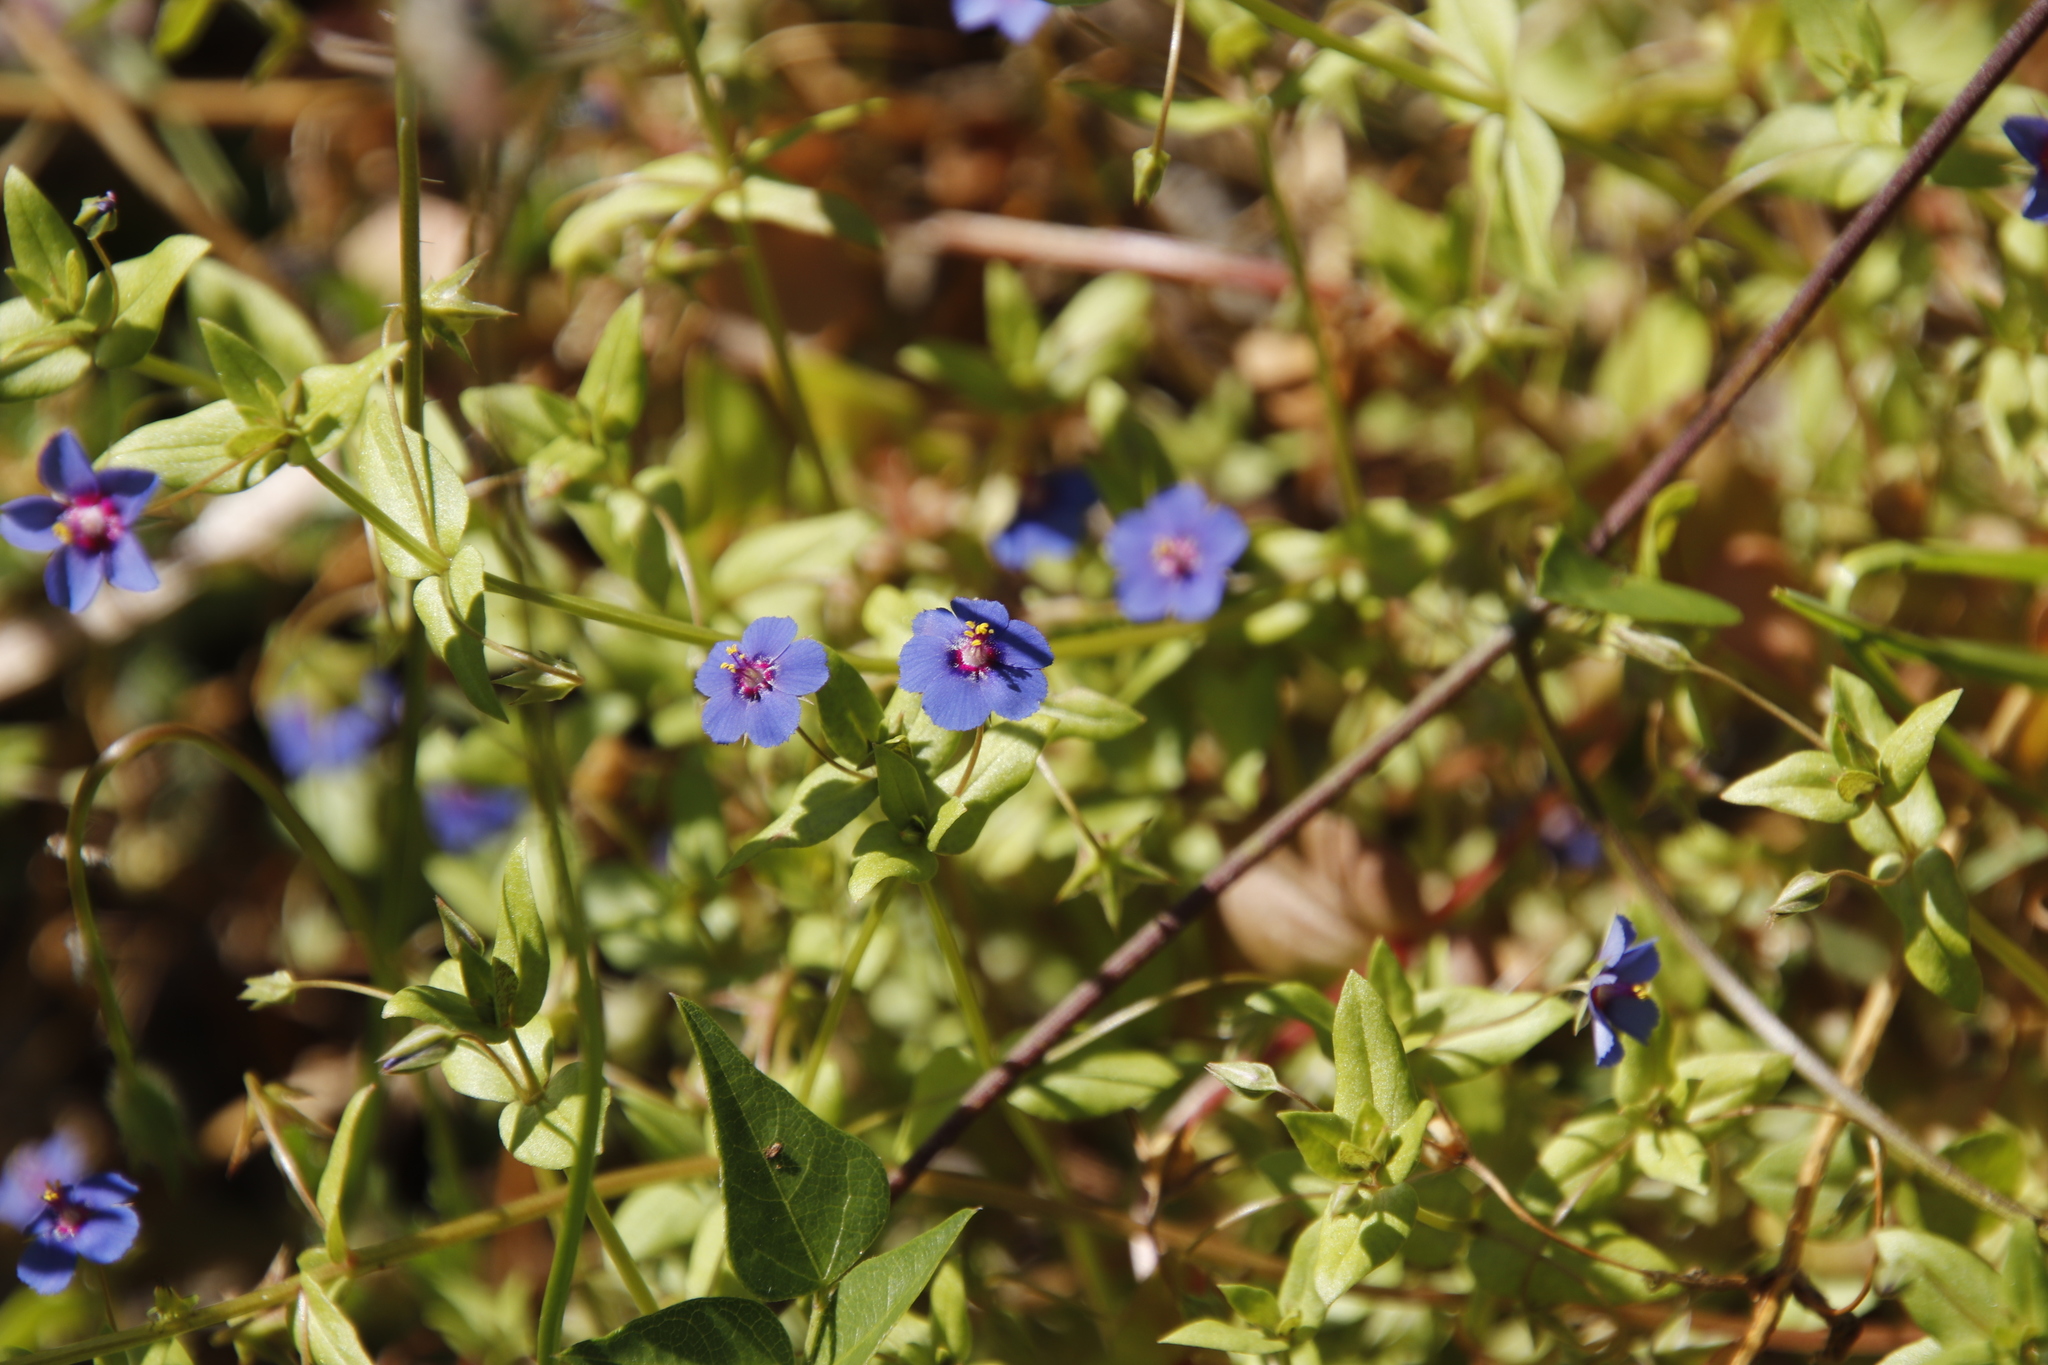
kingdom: Plantae
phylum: Tracheophyta
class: Magnoliopsida
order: Ericales
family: Primulaceae
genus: Lysimachia
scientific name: Lysimachia foemina
